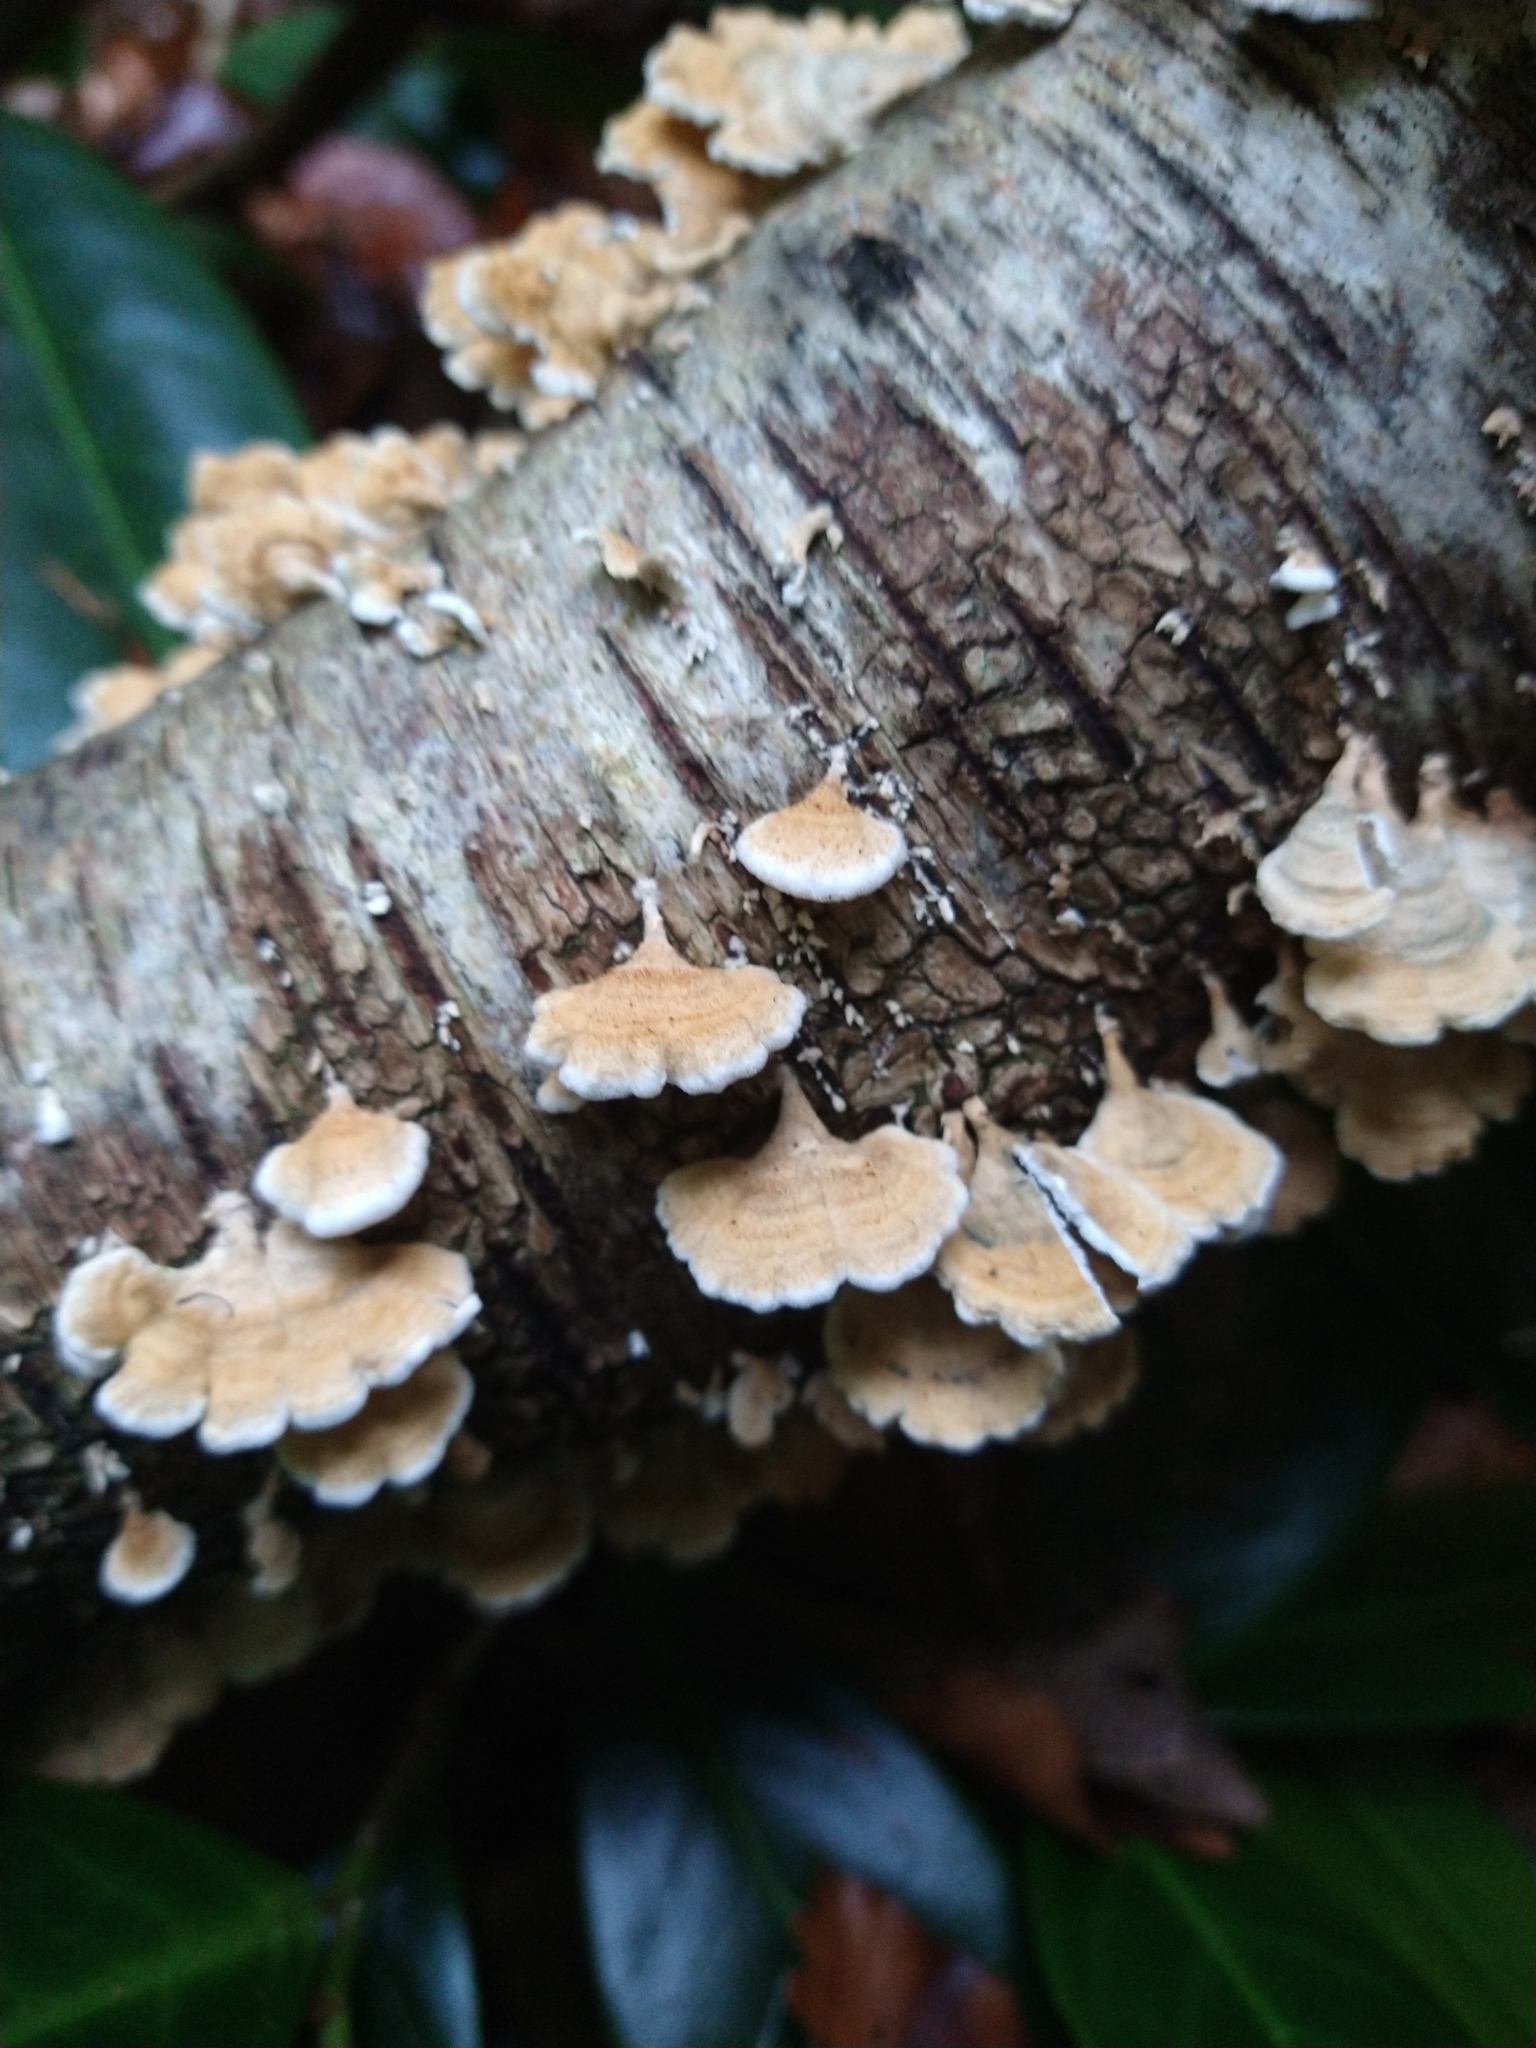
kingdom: Fungi
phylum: Basidiomycota
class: Agaricomycetes
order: Amylocorticiales
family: Amylocorticiaceae
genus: Plicaturopsis
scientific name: Plicaturopsis crispa
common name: Crimped gill
